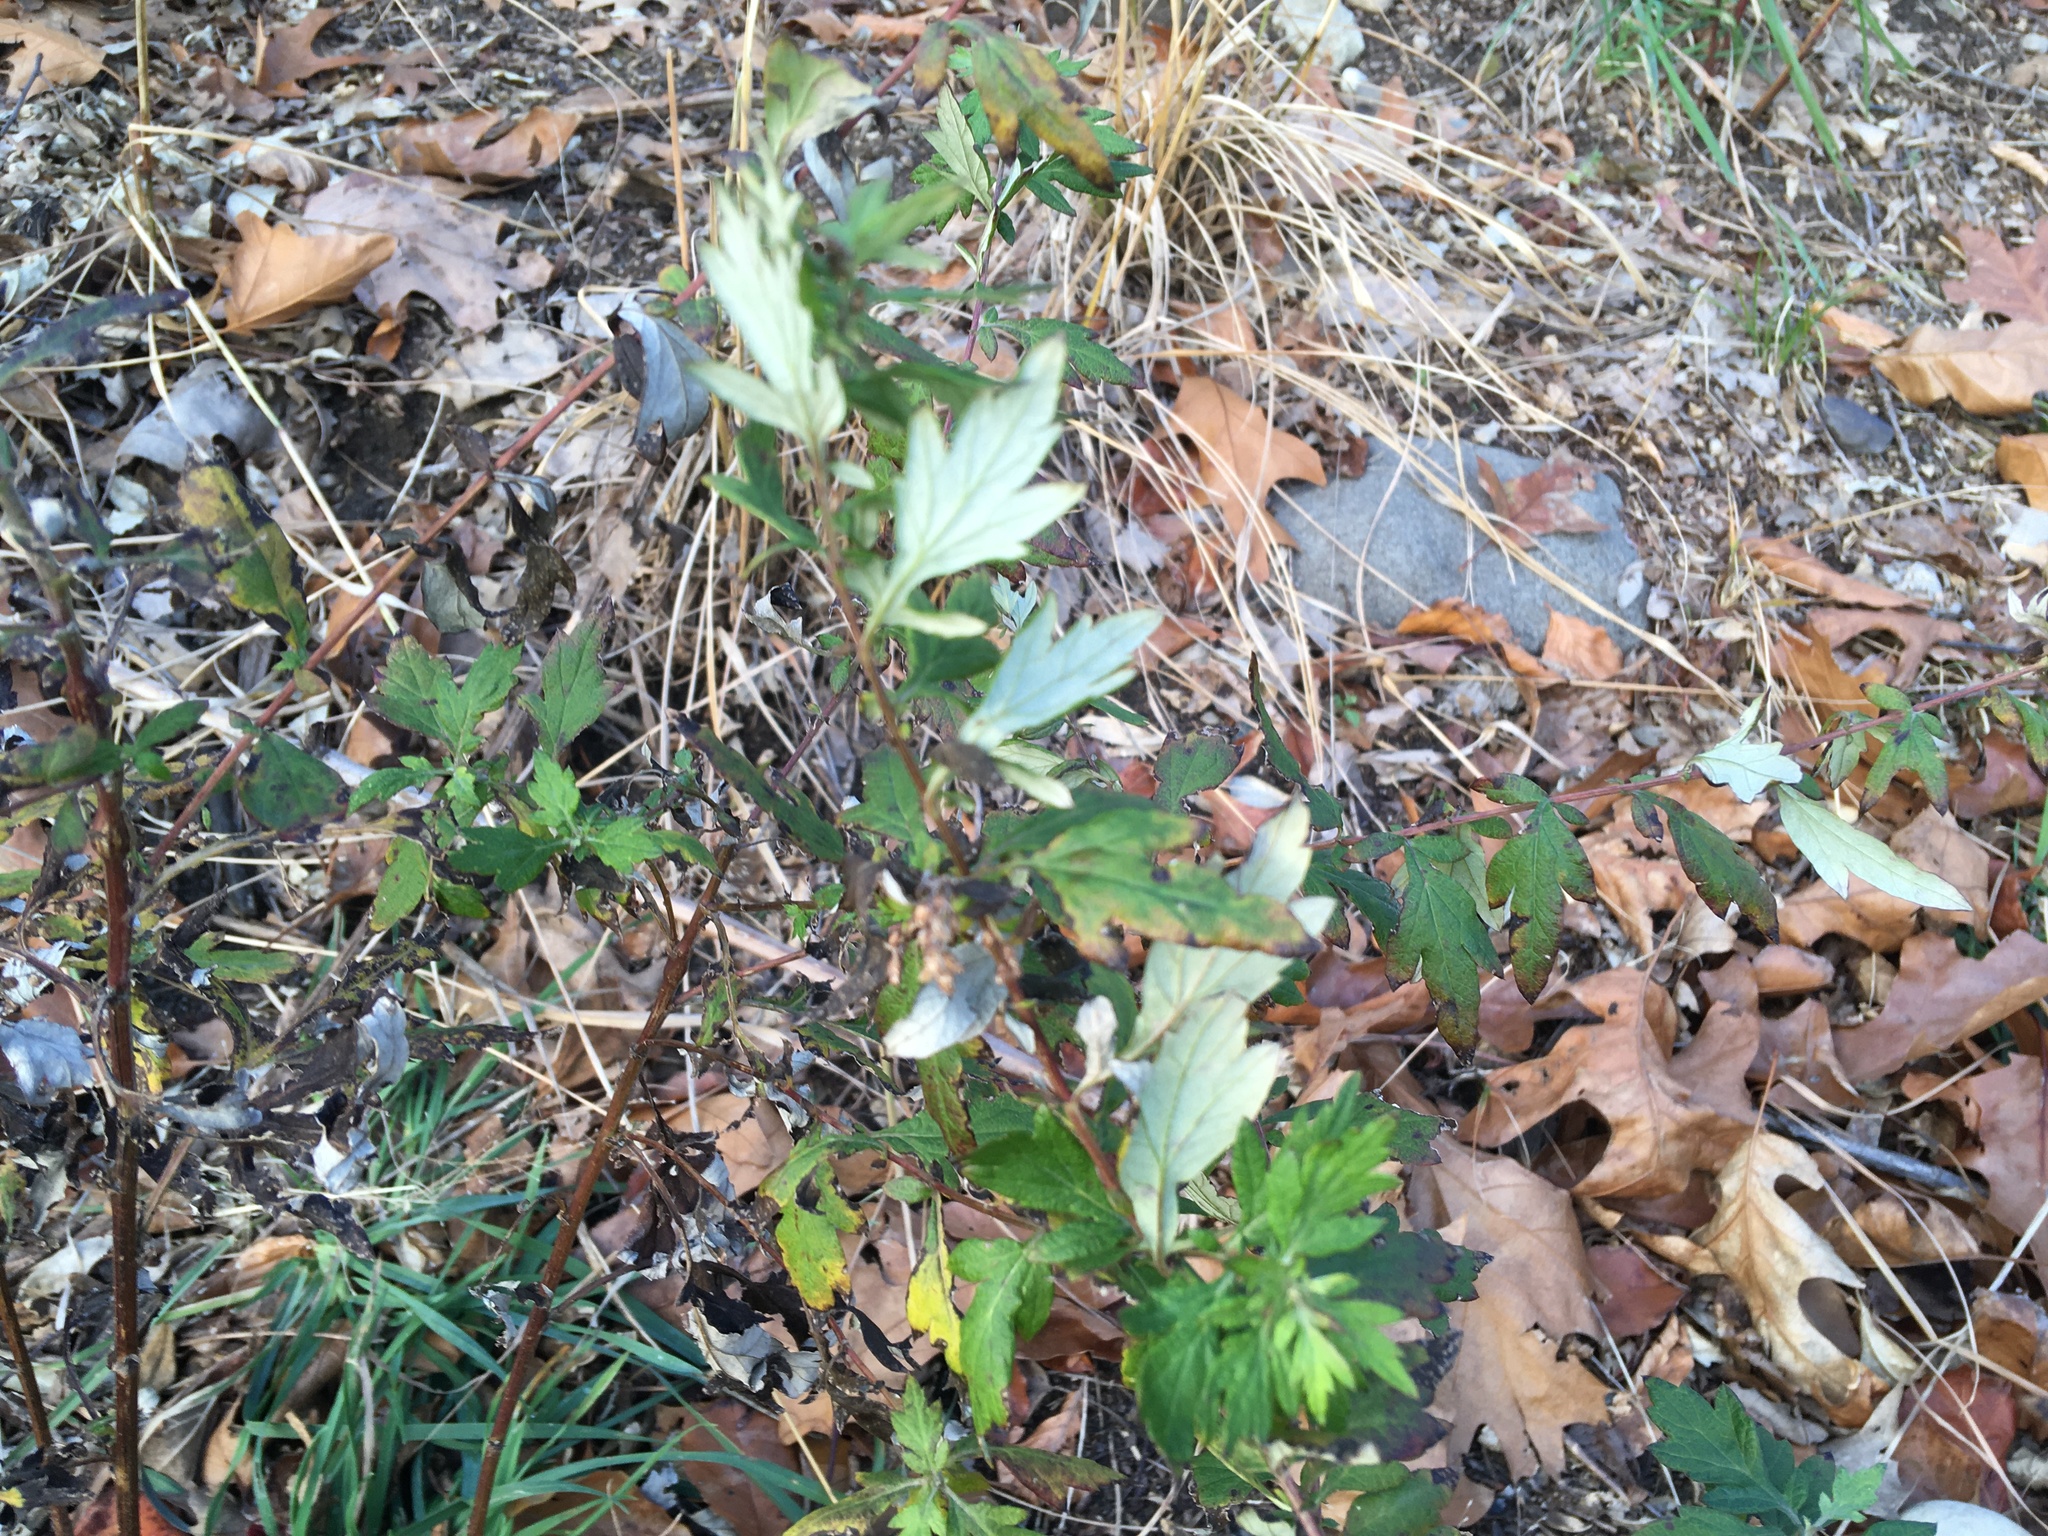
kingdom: Plantae
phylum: Tracheophyta
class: Magnoliopsida
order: Asterales
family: Asteraceae
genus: Artemisia
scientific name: Artemisia vulgaris
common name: Mugwort
